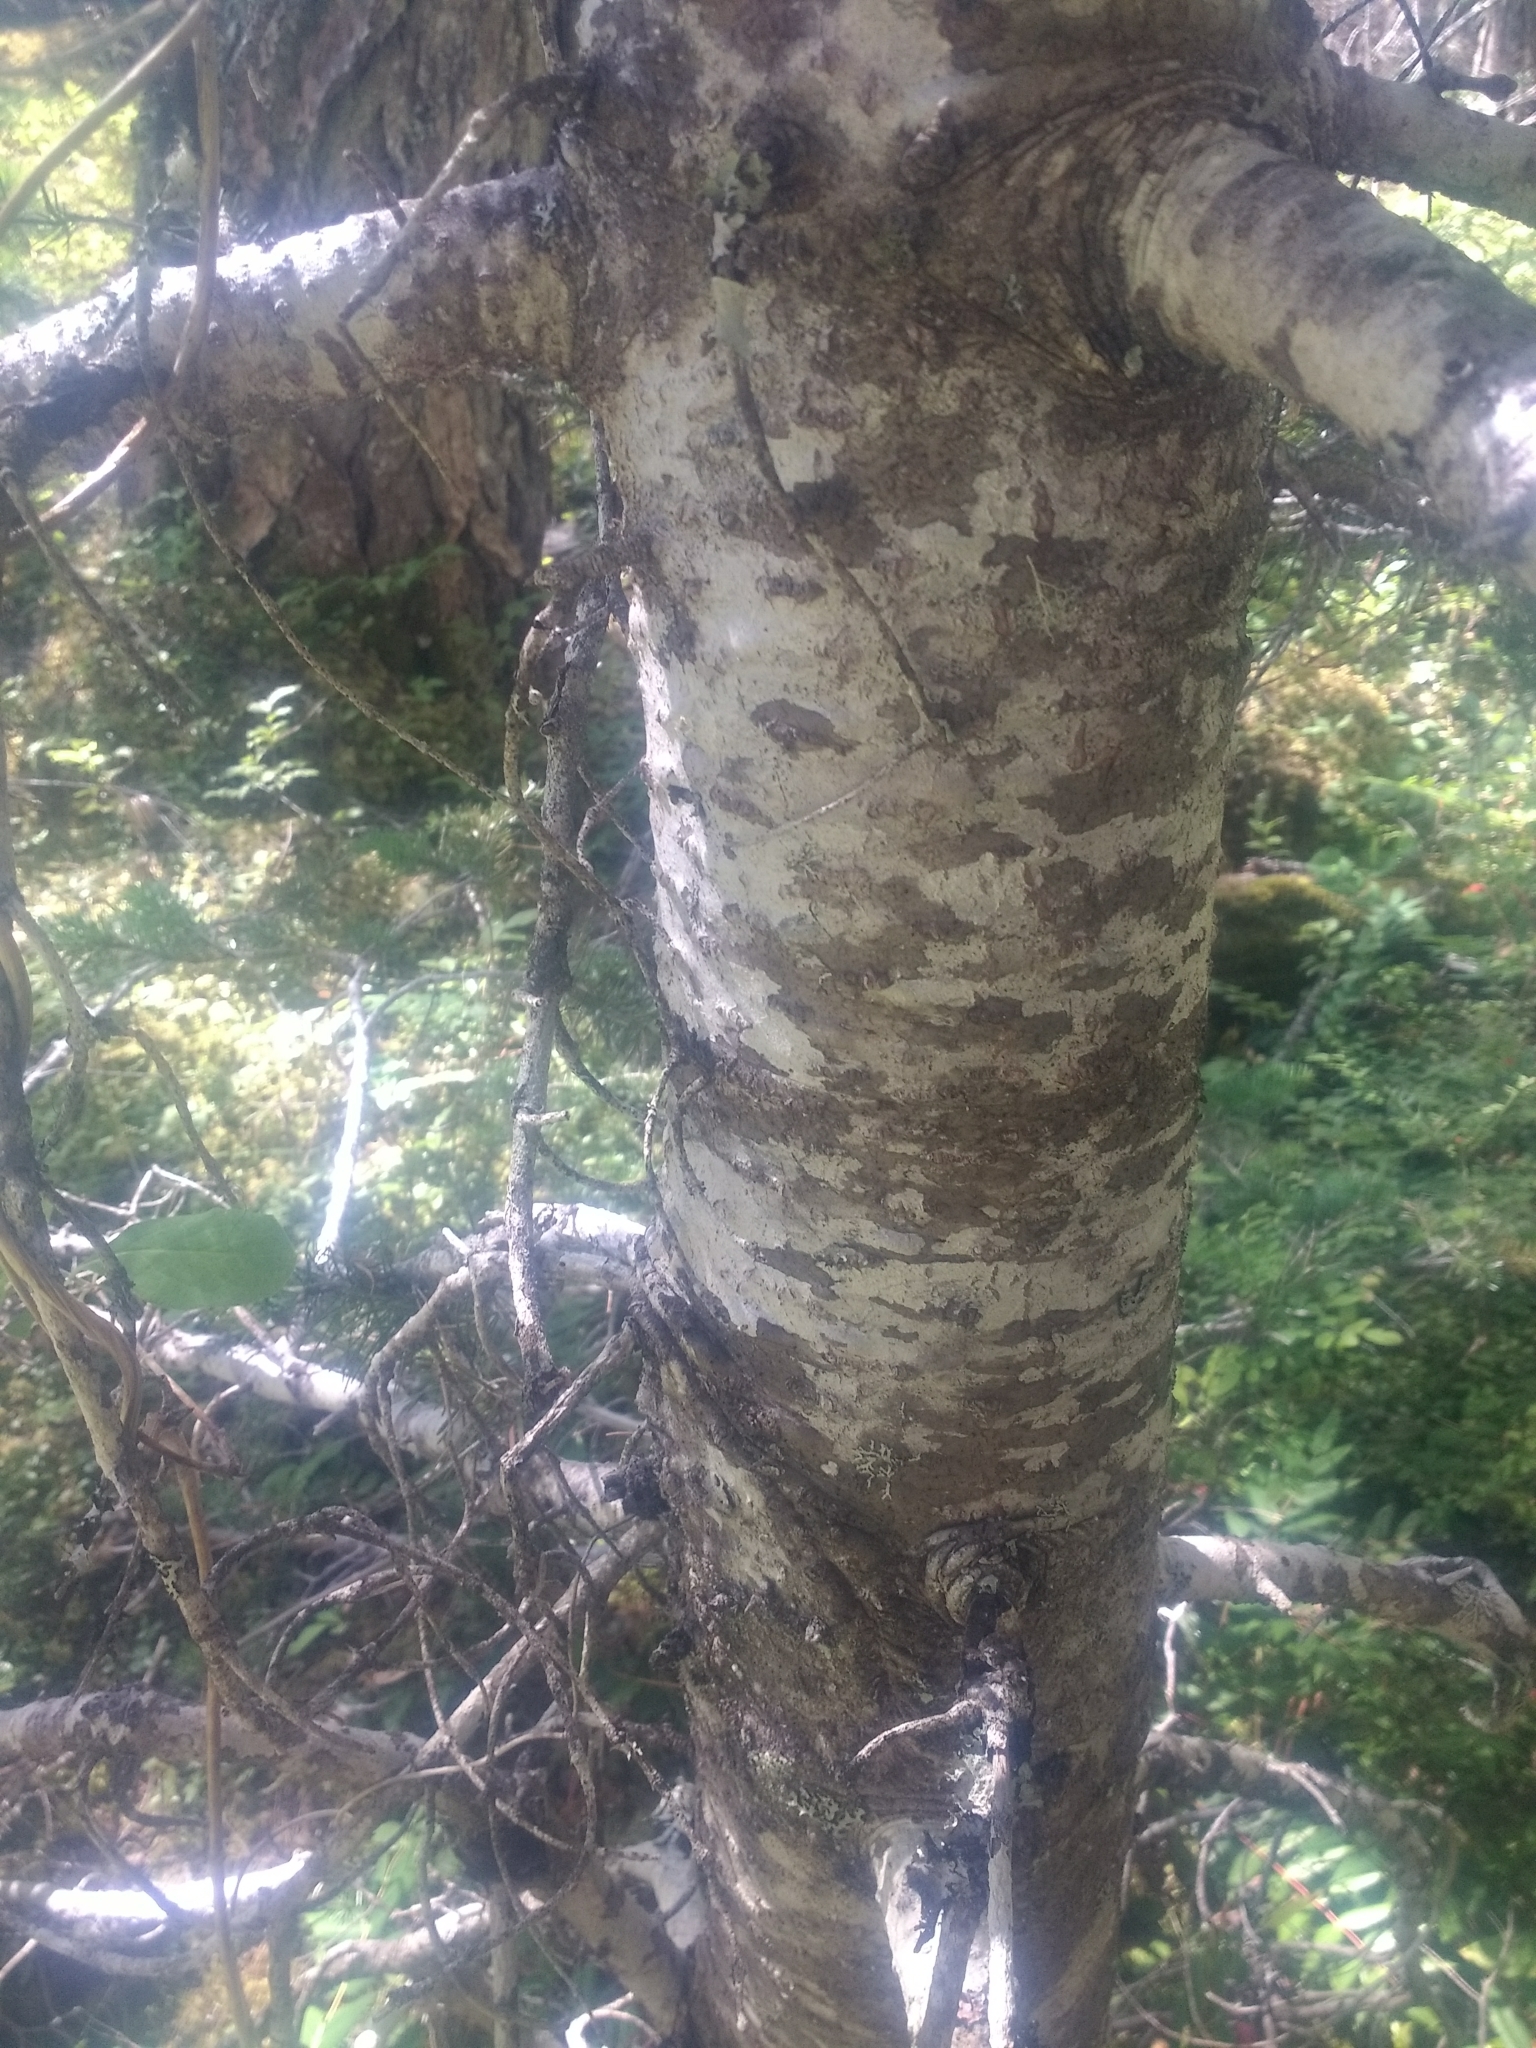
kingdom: Plantae
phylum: Tracheophyta
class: Pinopsida
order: Pinales
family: Pinaceae
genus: Pseudotsuga
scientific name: Pseudotsuga menziesii
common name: Douglas fir
